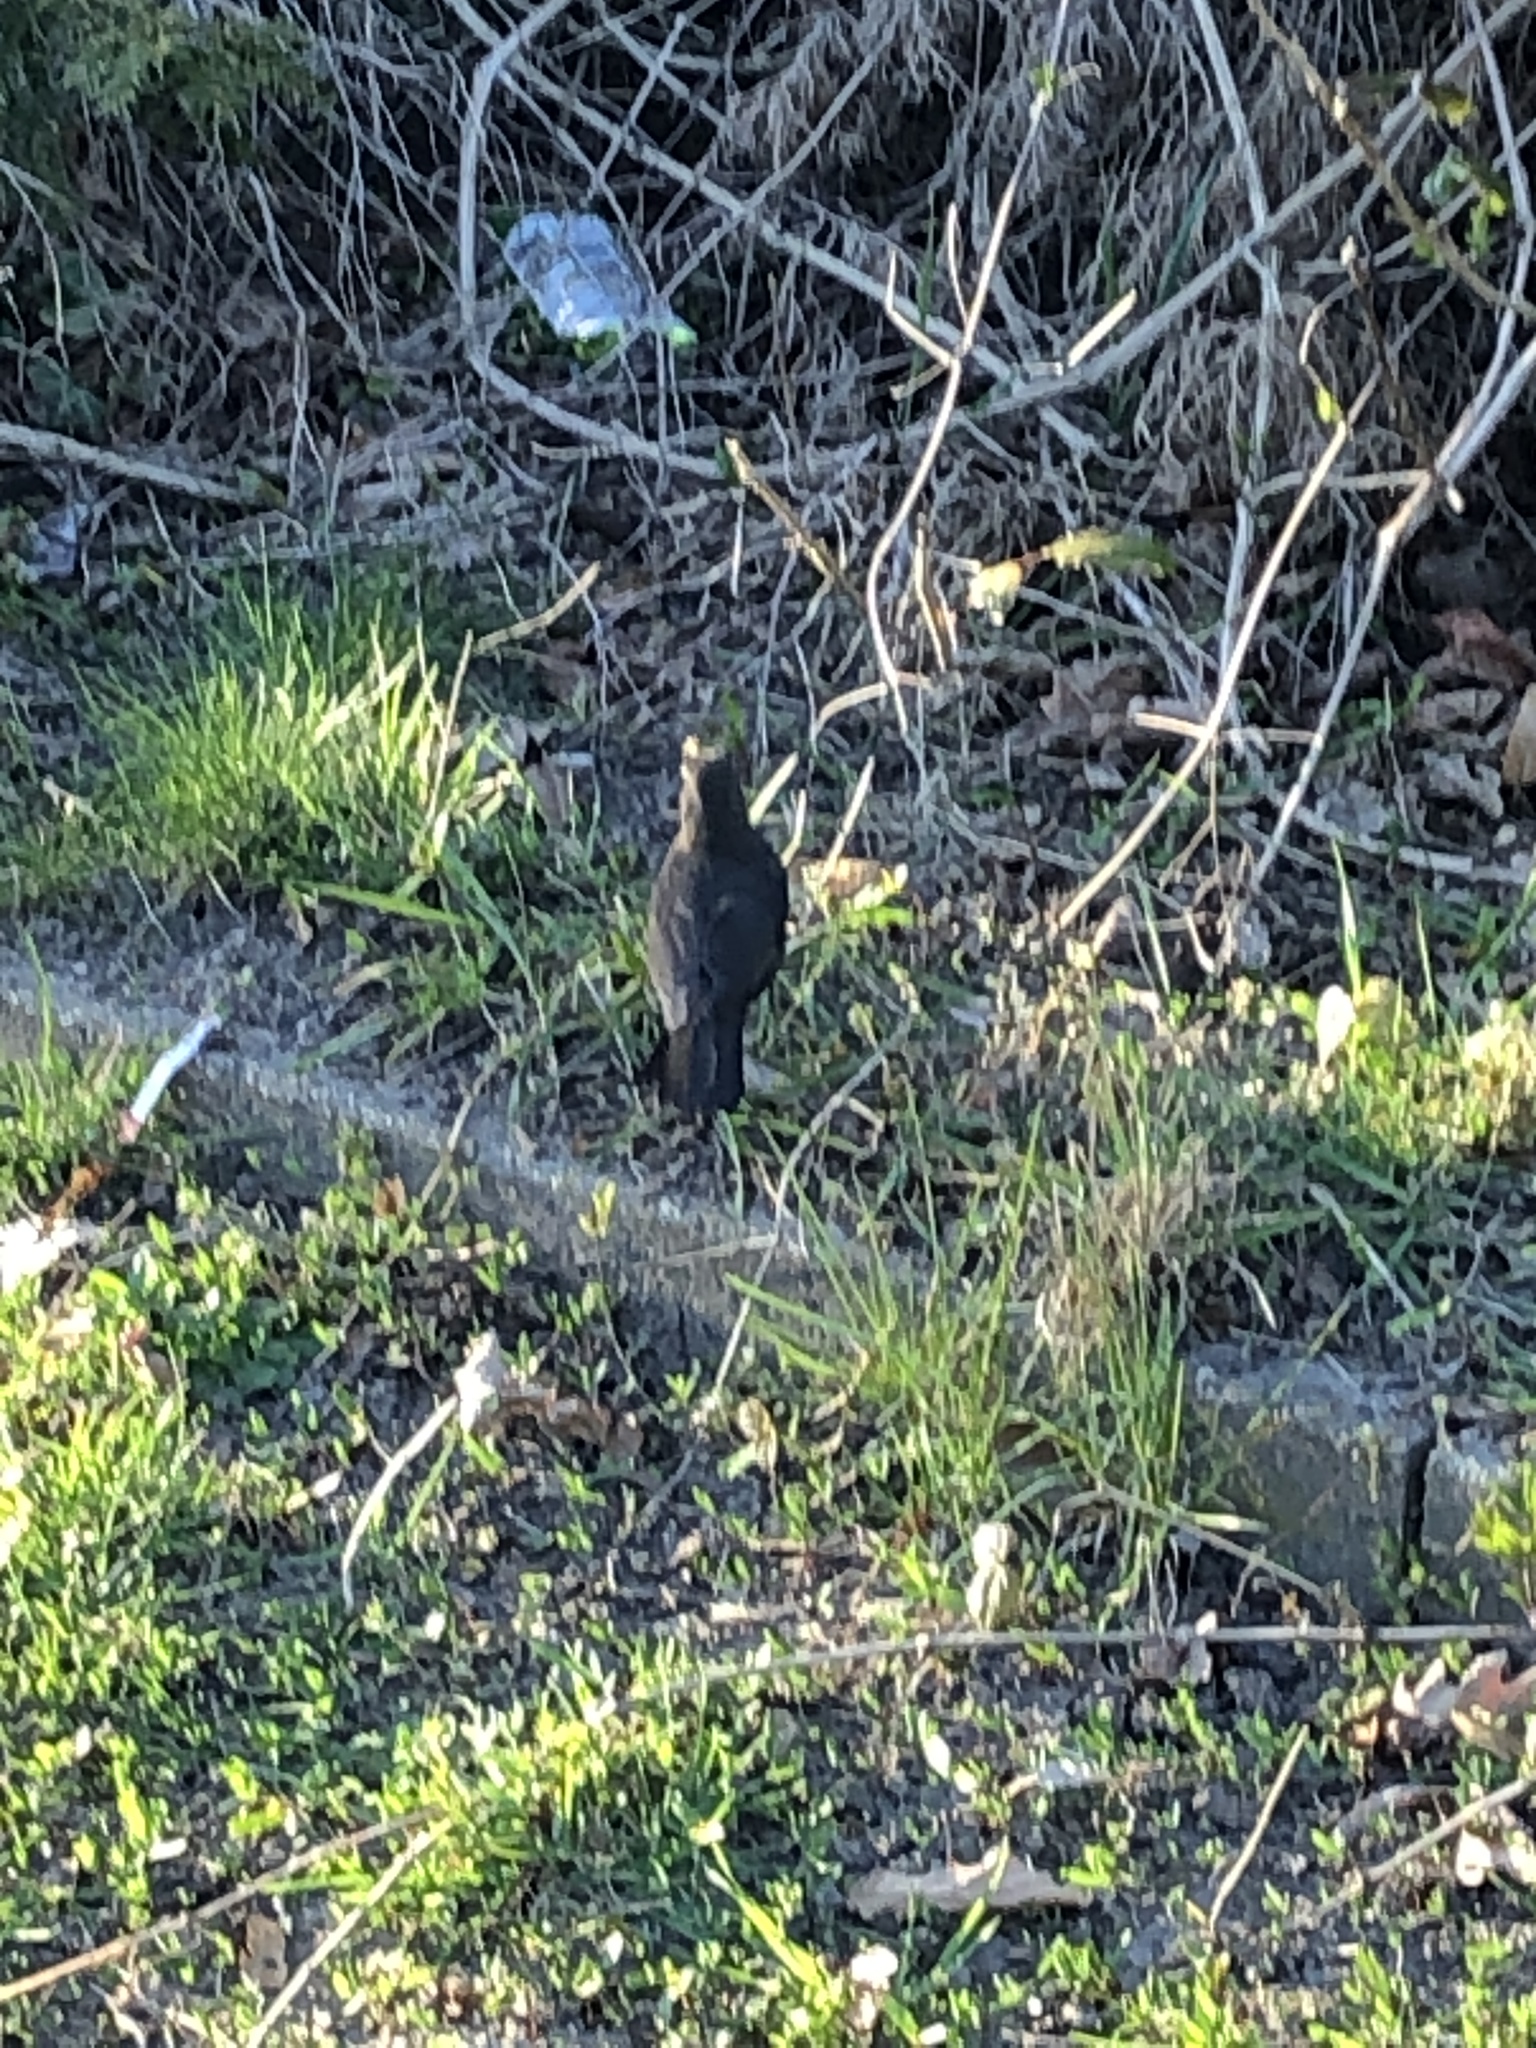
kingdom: Animalia
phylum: Chordata
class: Aves
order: Passeriformes
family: Turdidae
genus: Turdus
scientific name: Turdus merula
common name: Common blackbird
